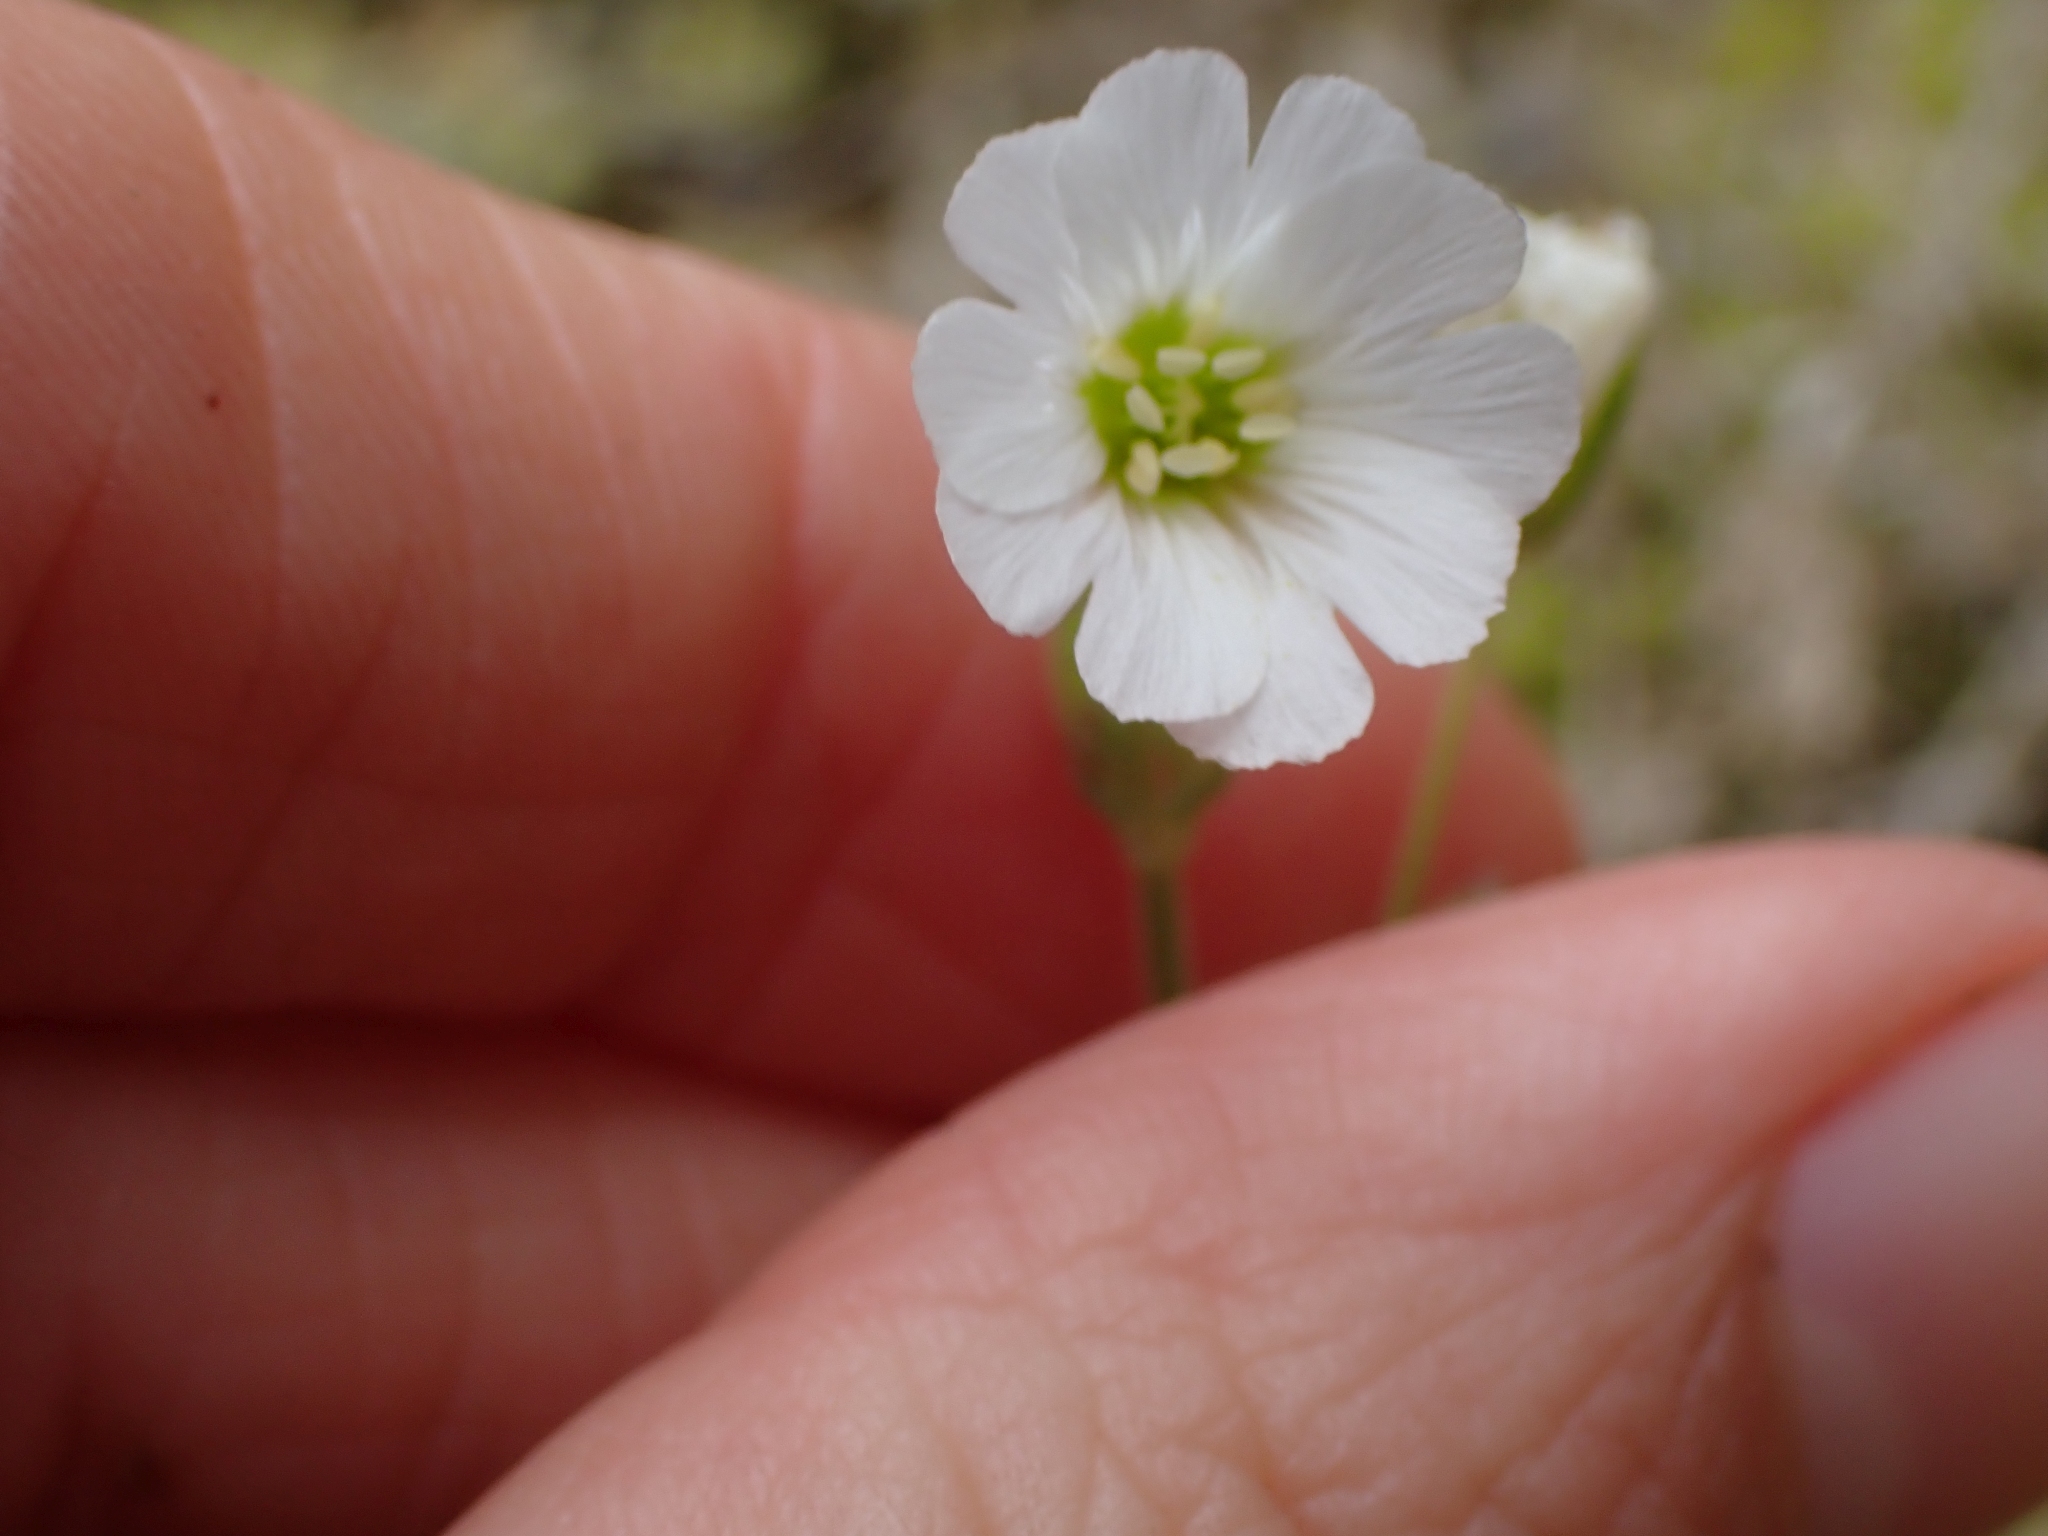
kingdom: Plantae
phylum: Tracheophyta
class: Magnoliopsida
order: Caryophyllales
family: Caryophyllaceae
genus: Cerastium
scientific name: Cerastium arvense
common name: Field mouse-ear
